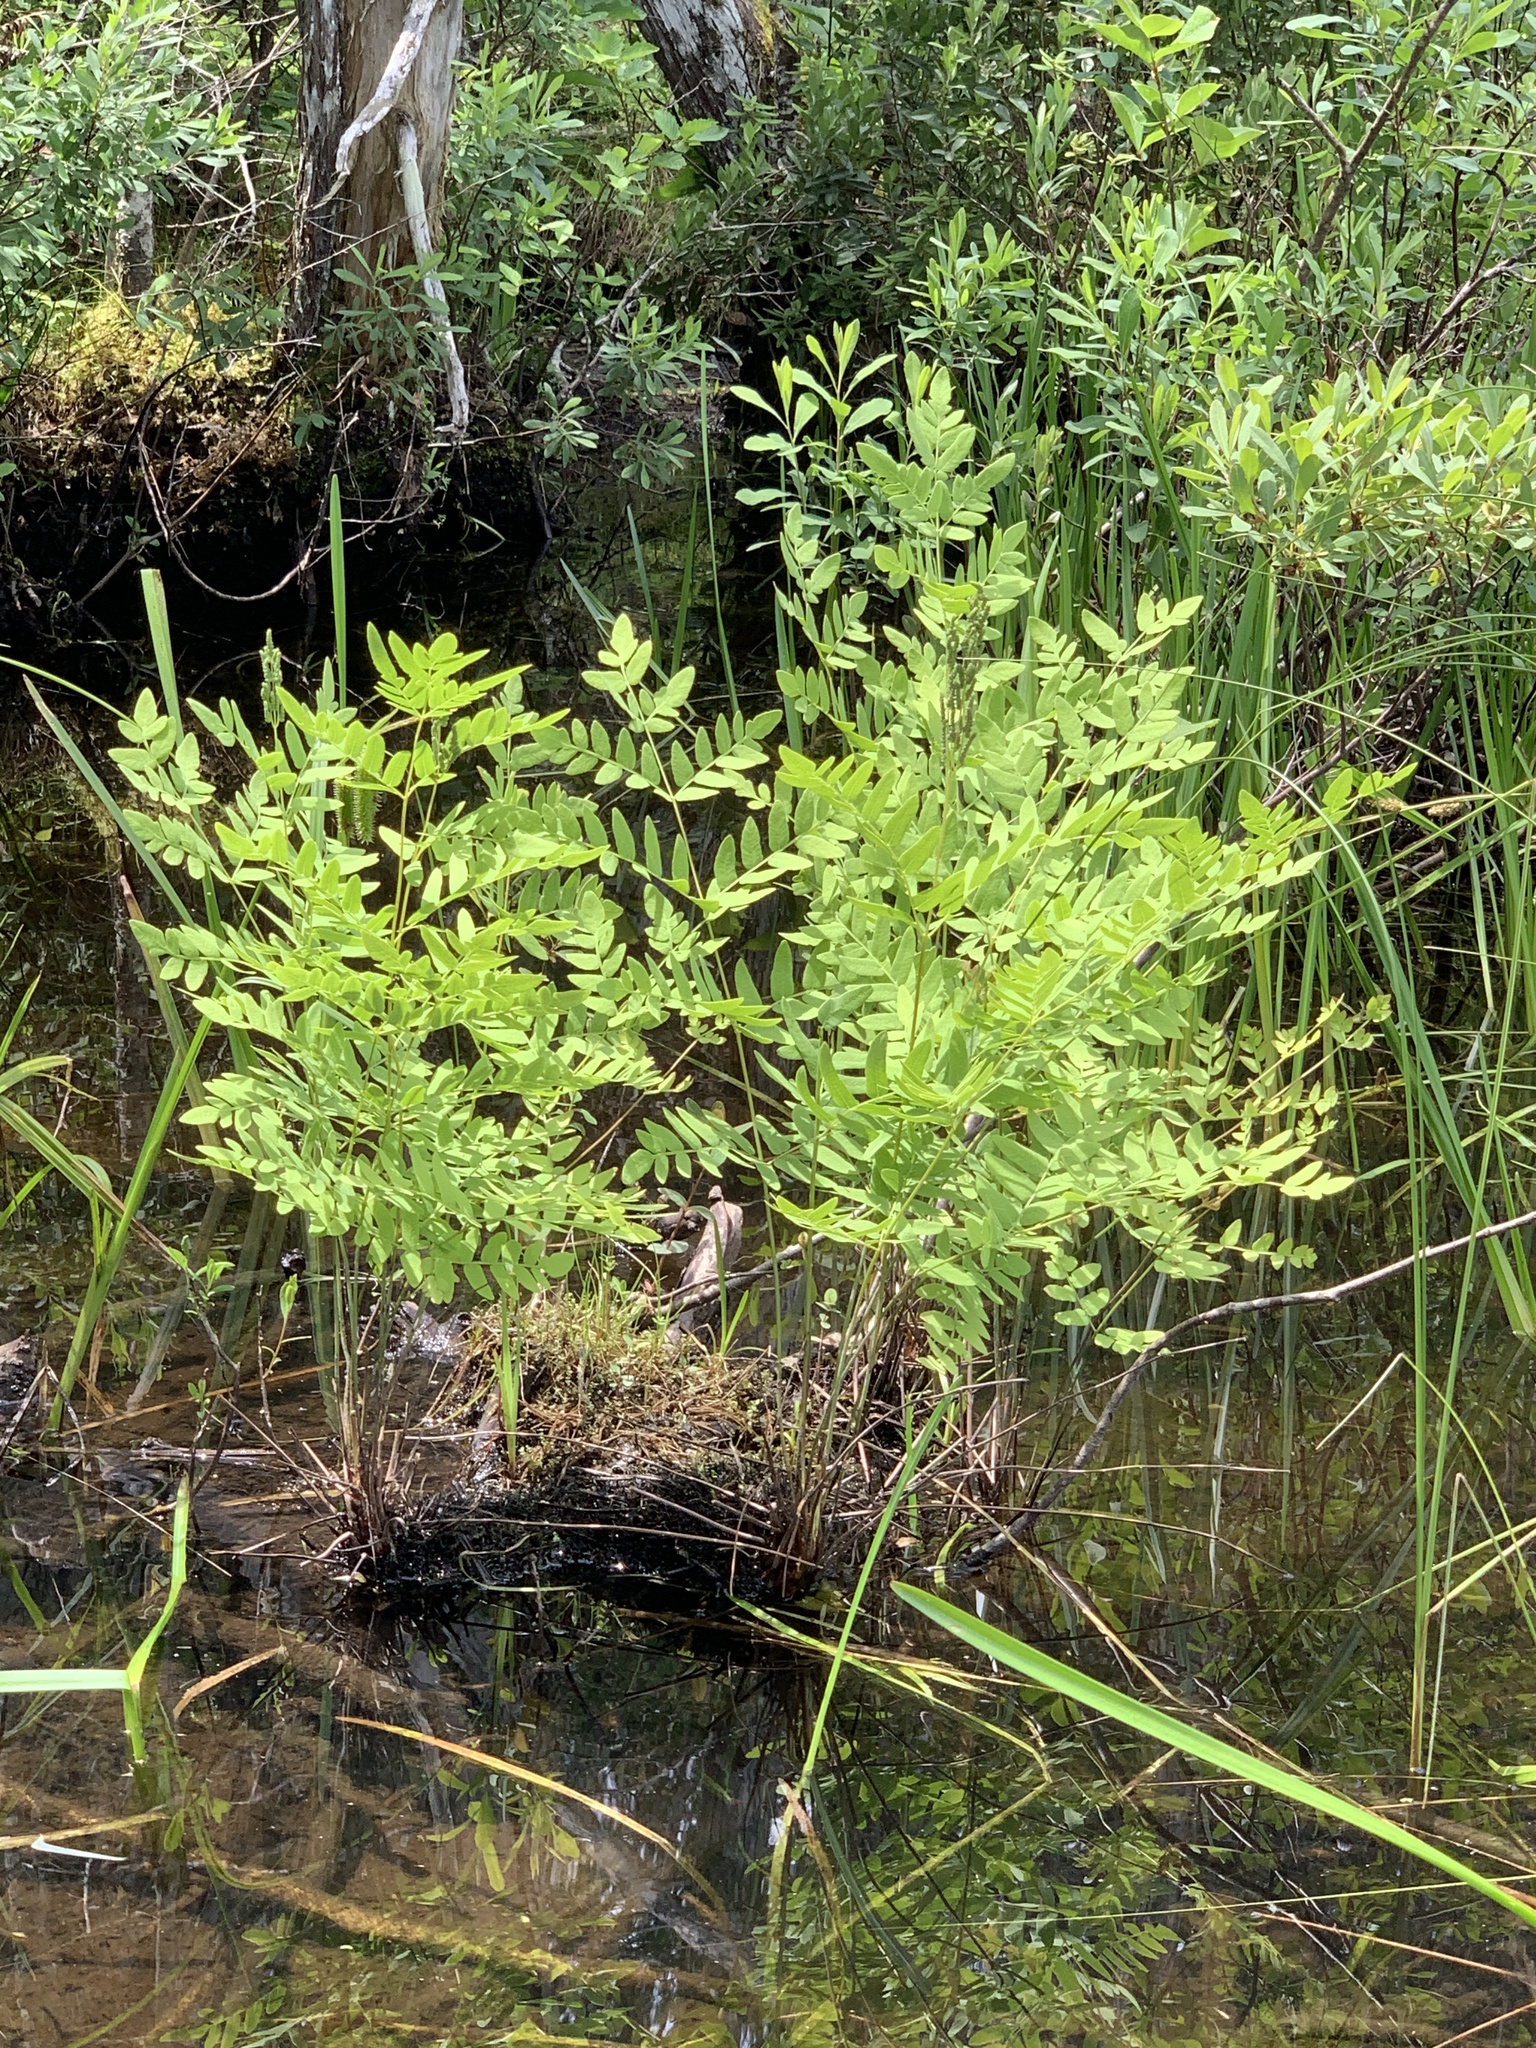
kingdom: Plantae
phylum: Tracheophyta
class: Polypodiopsida
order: Osmundales
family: Osmundaceae
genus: Osmunda
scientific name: Osmunda spectabilis
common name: American royal fern
